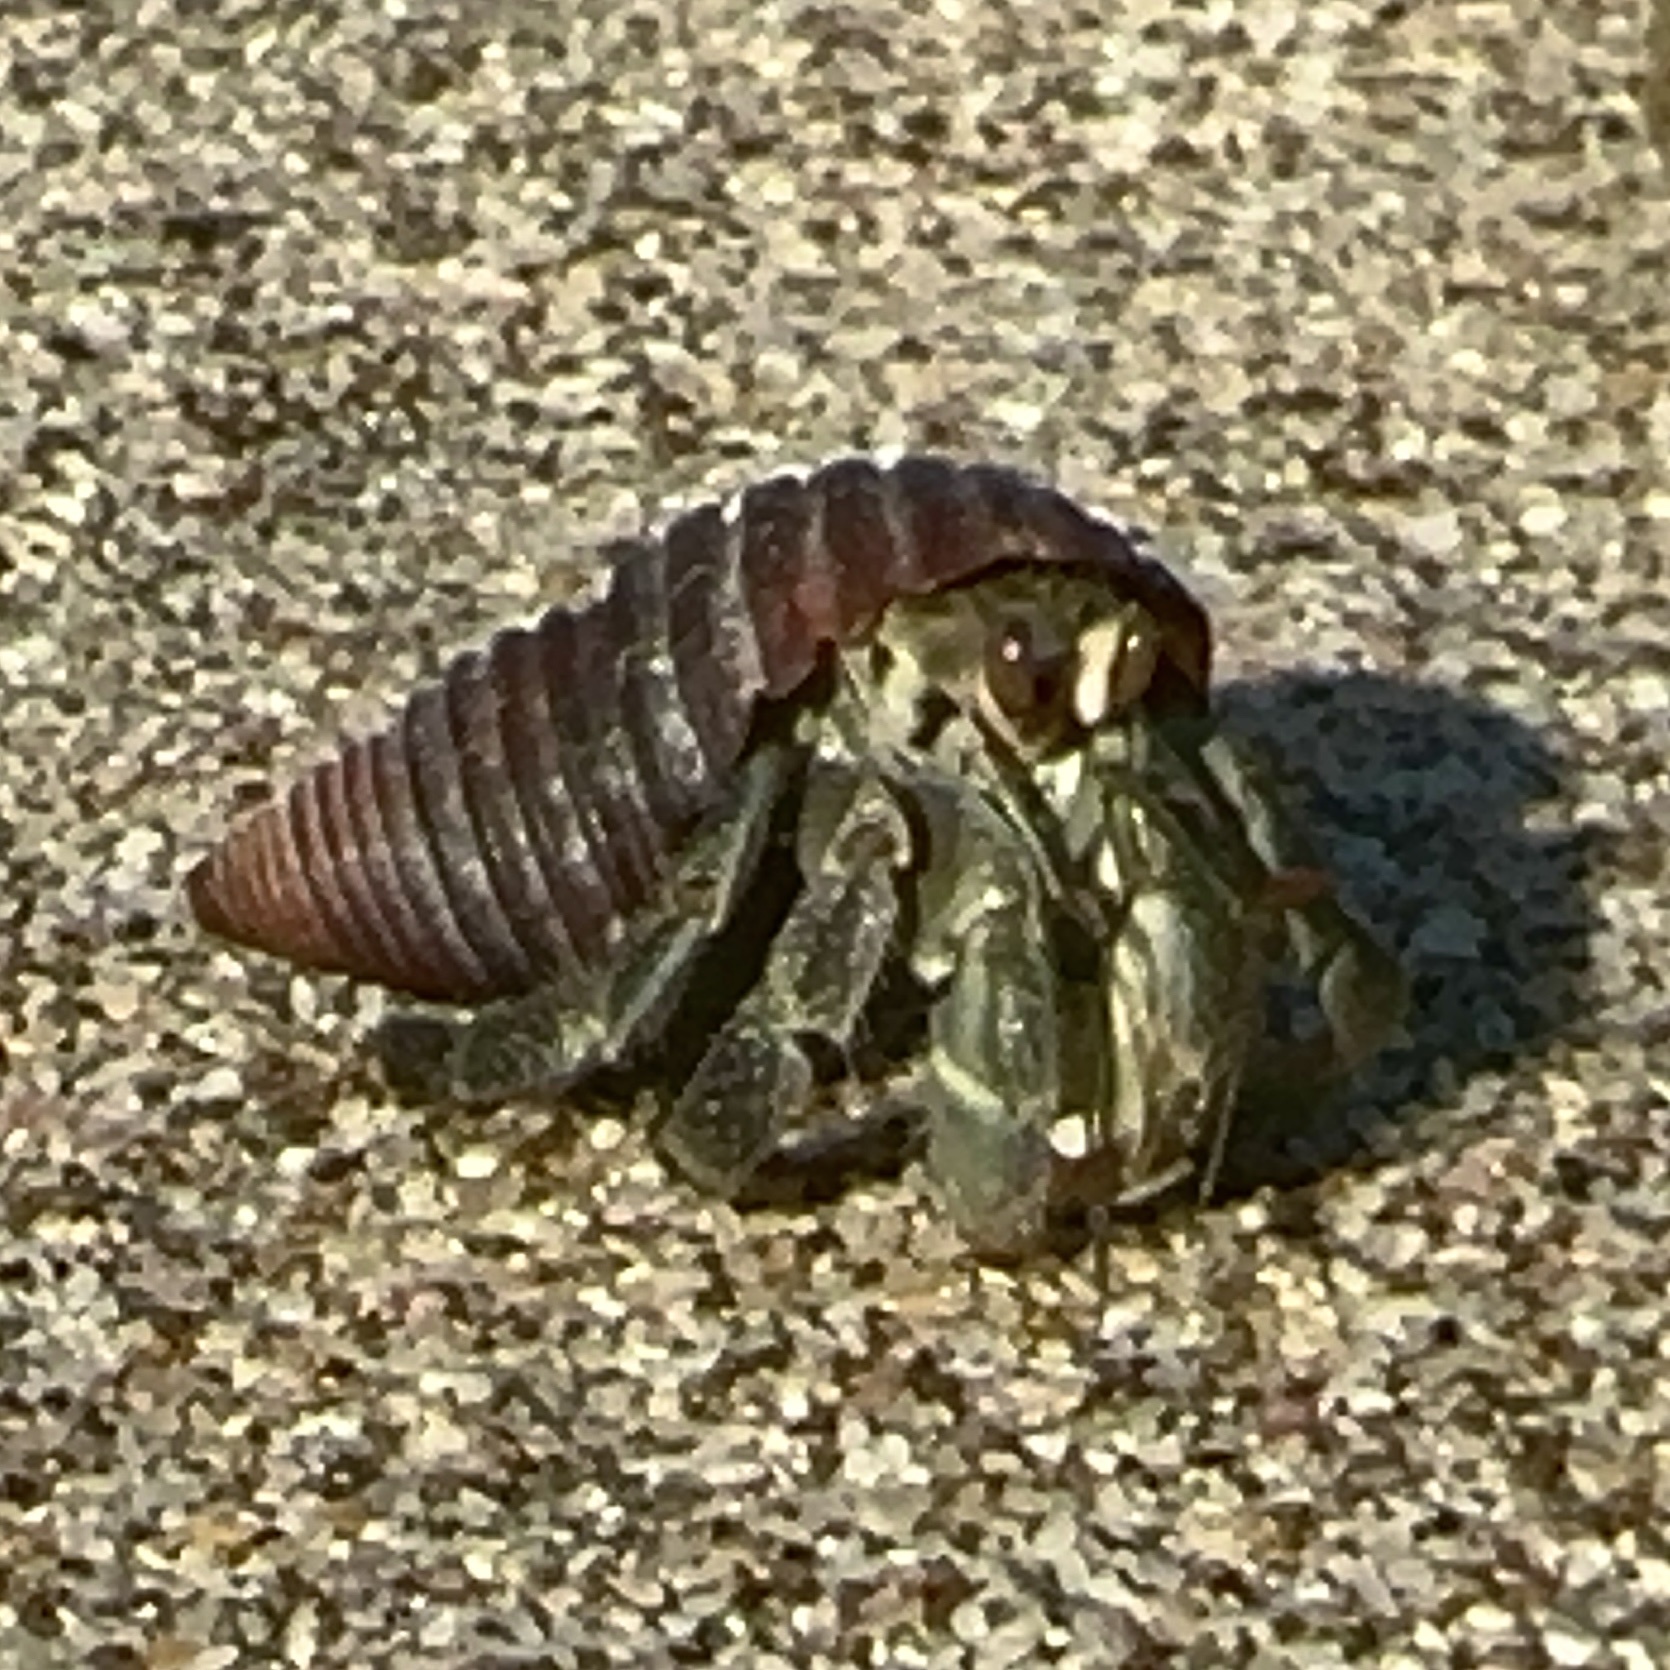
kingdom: Animalia
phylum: Arthropoda
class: Malacostraca
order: Decapoda
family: Coenobitidae
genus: Coenobita
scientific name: Coenobita compressus
